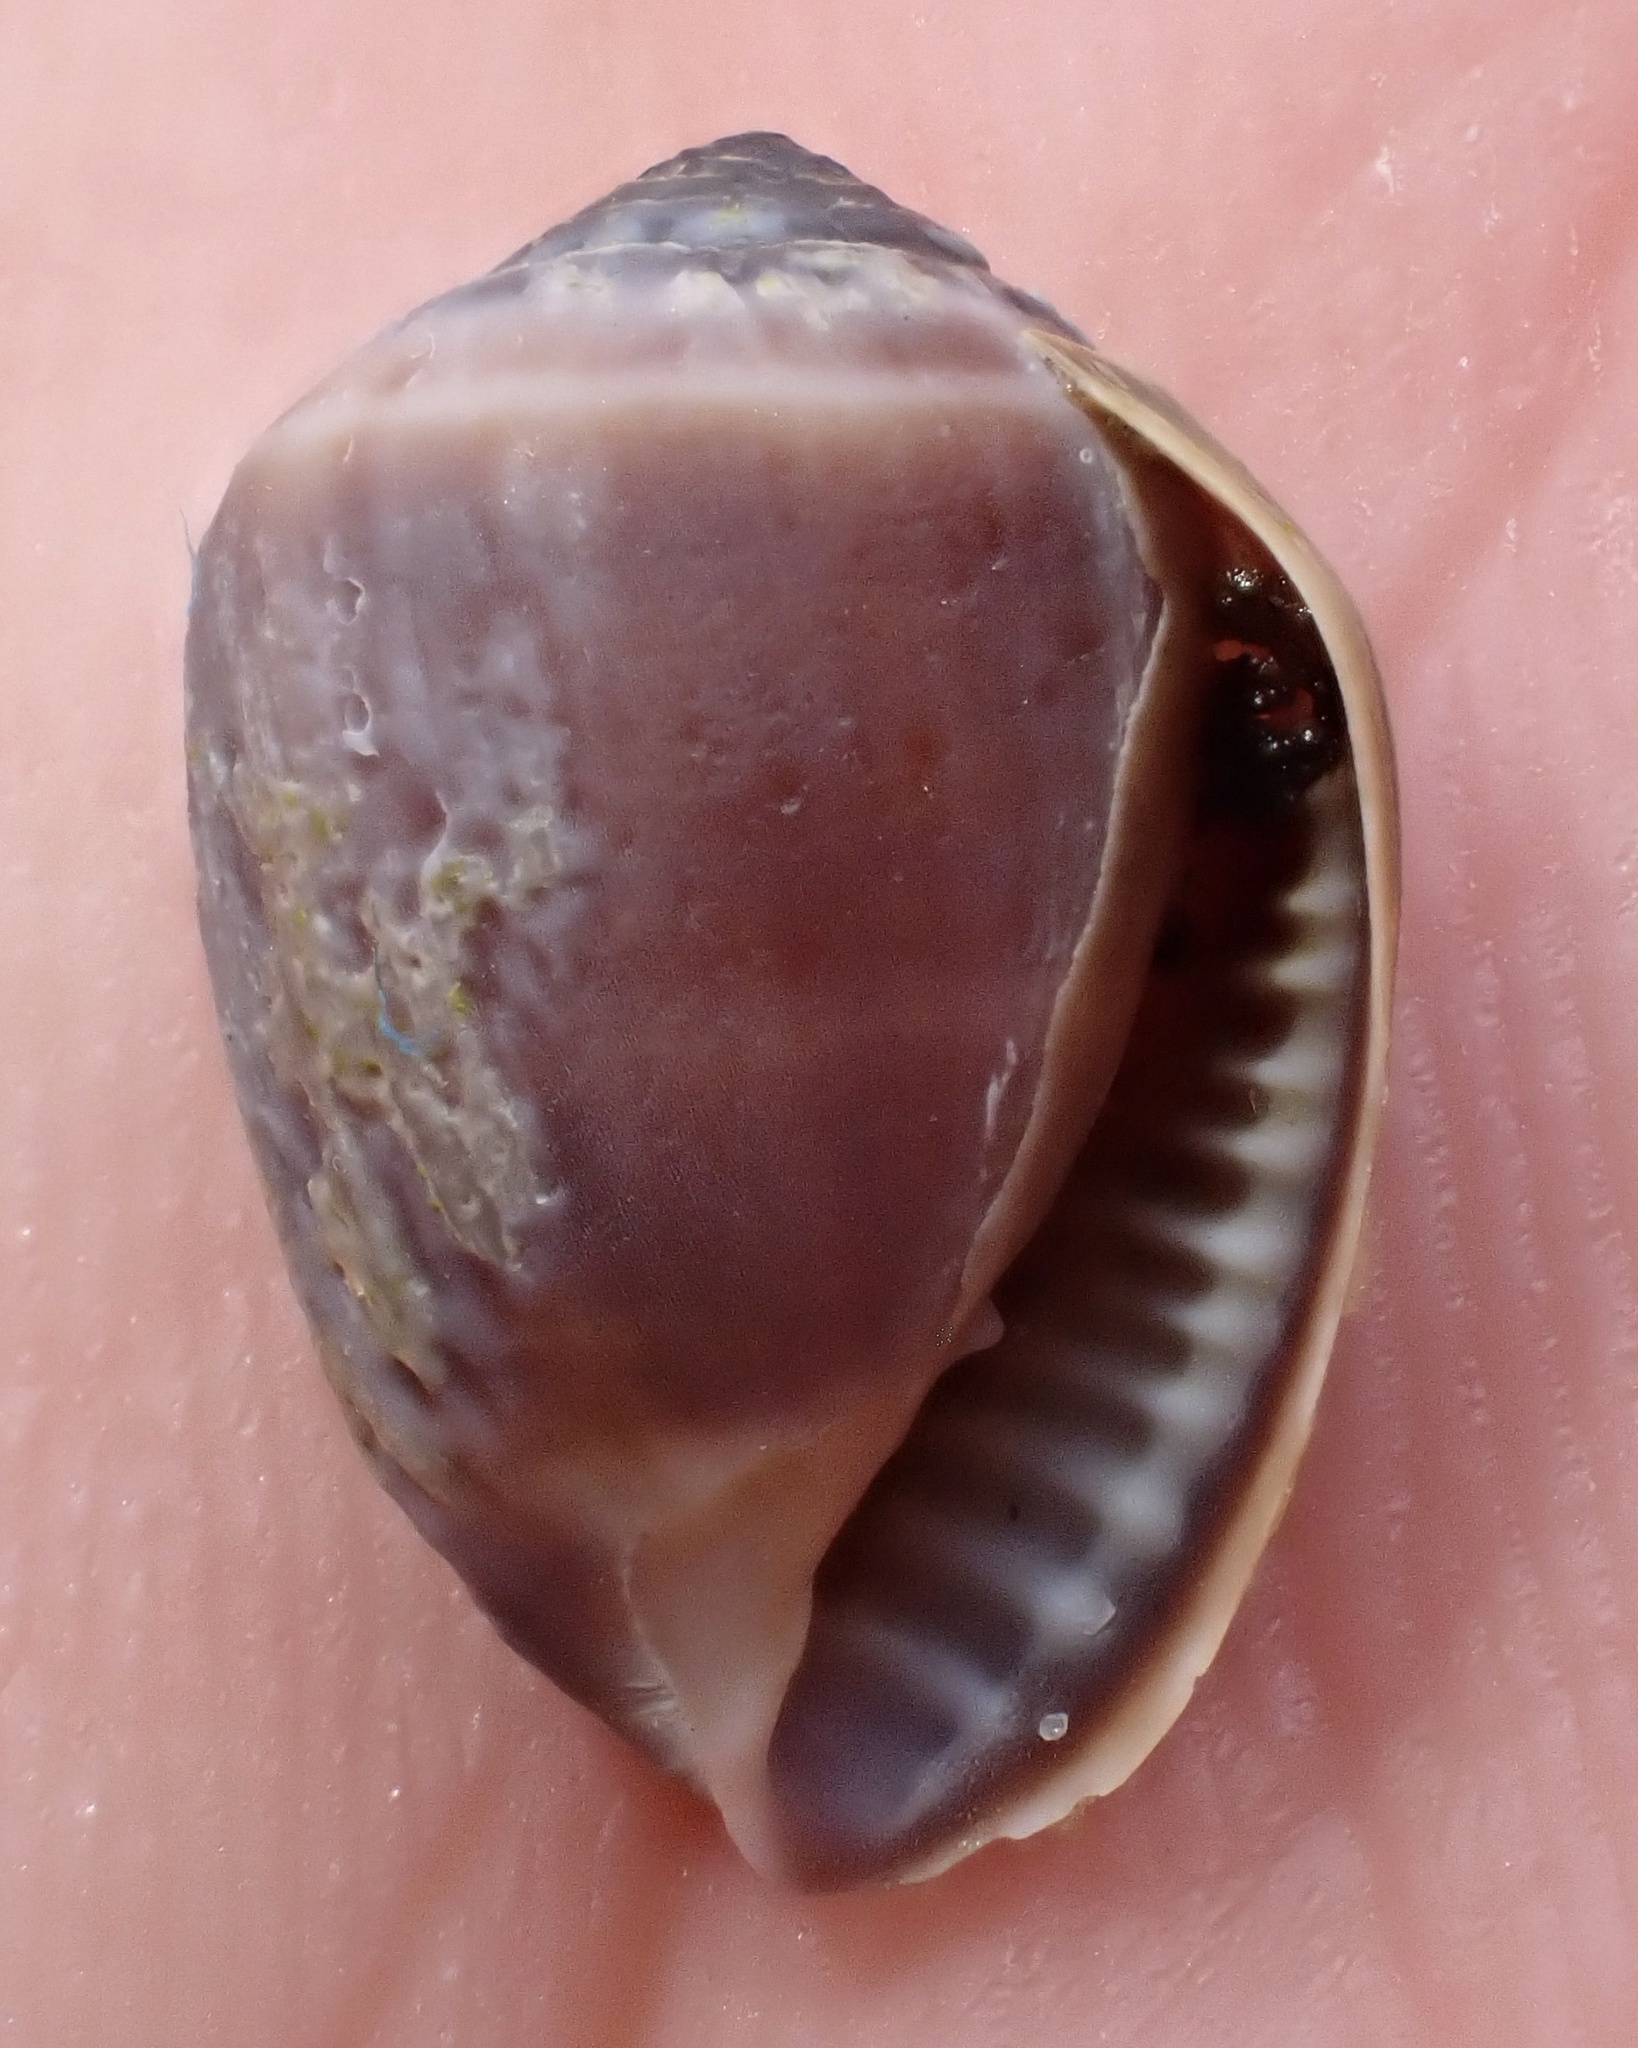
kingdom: Animalia
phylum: Mollusca
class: Gastropoda
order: Ellobiida
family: Ellobiidae
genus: Melampus
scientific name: Melampus coffea
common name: Coffee bean snail
